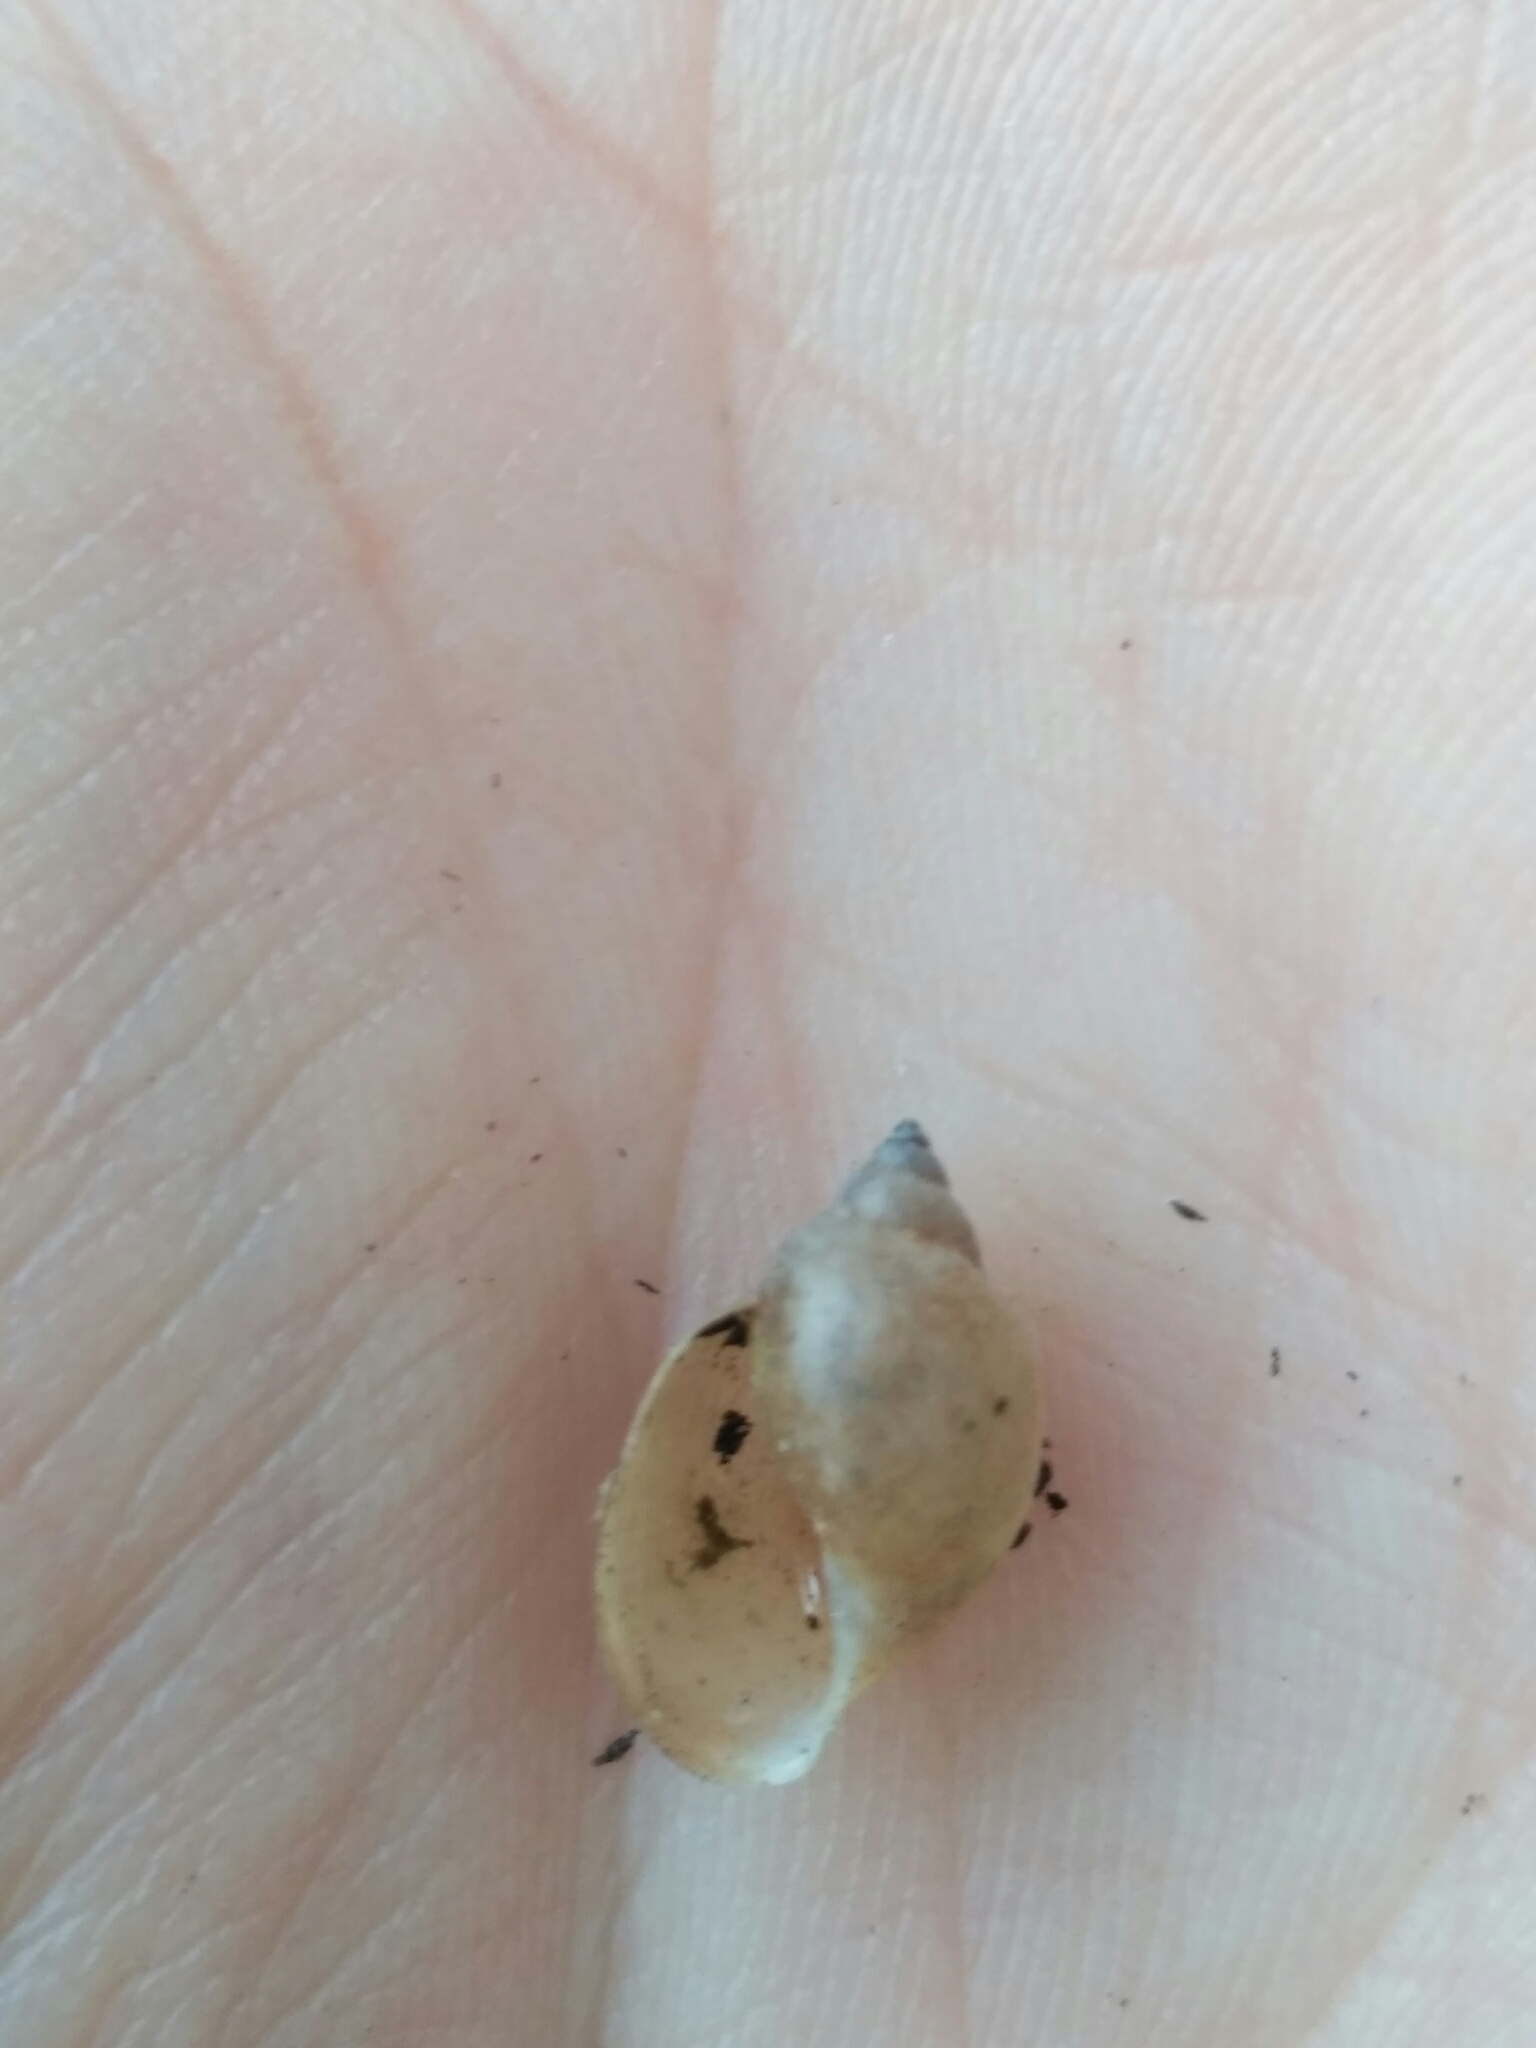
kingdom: Animalia
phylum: Mollusca
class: Gastropoda
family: Physidae
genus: Physella
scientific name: Physella acuta
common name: European physa
